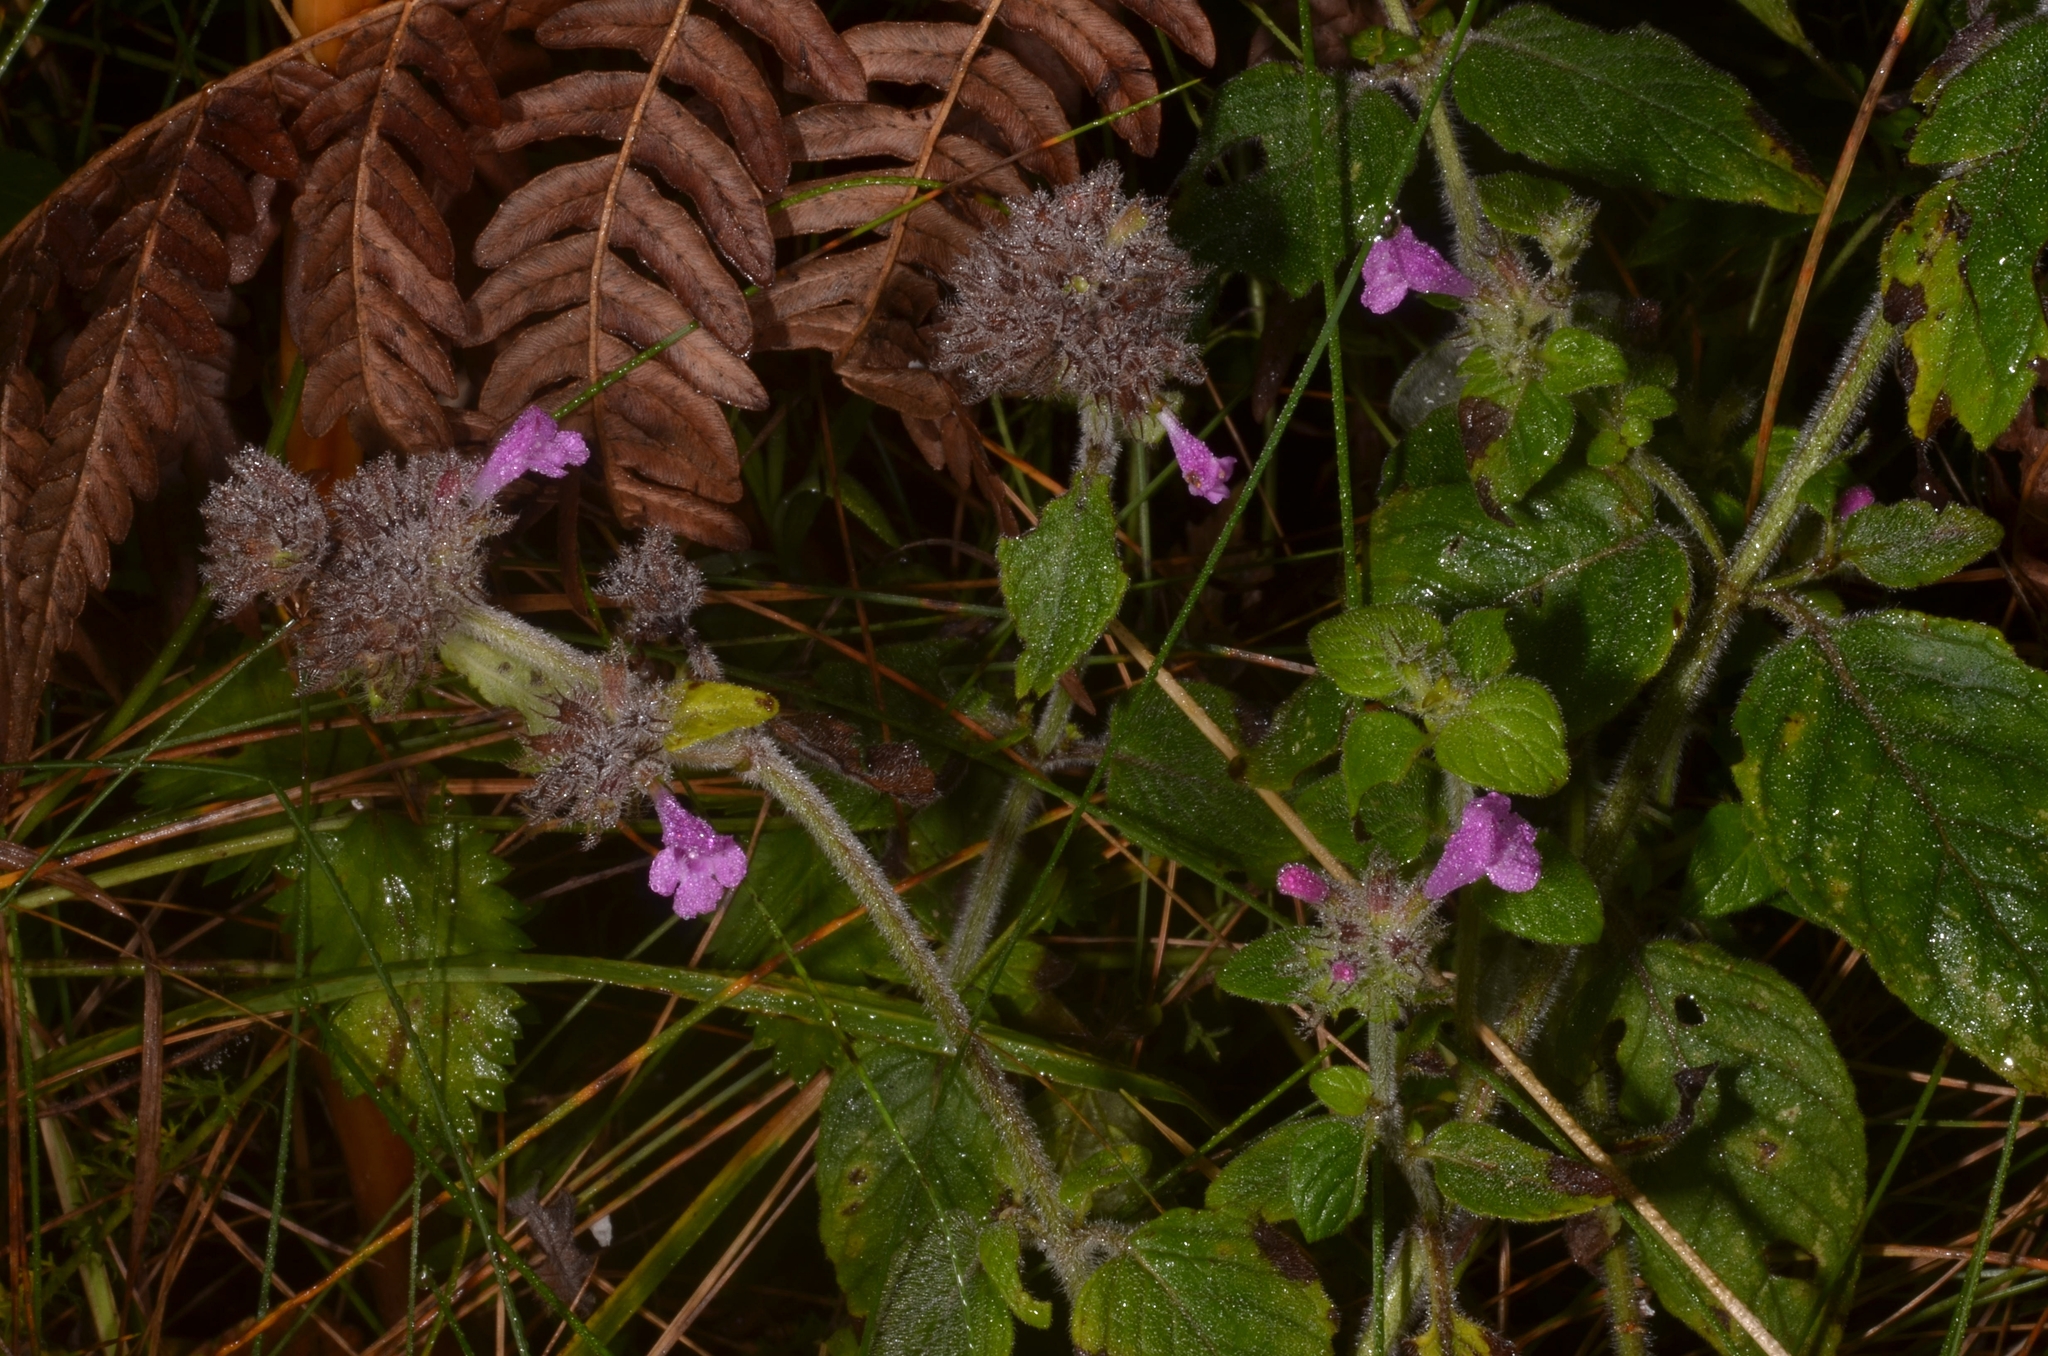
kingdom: Plantae
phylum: Tracheophyta
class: Magnoliopsida
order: Lamiales
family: Lamiaceae
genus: Clinopodium
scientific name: Clinopodium vulgare
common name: Wild basil
